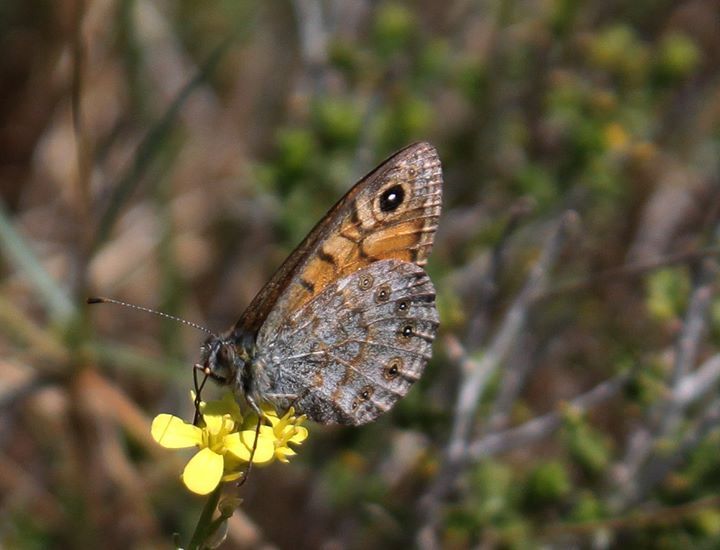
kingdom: Animalia
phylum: Arthropoda
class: Insecta
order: Lepidoptera
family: Nymphalidae
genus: Pararge
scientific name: Pararge Lasiommata megera
